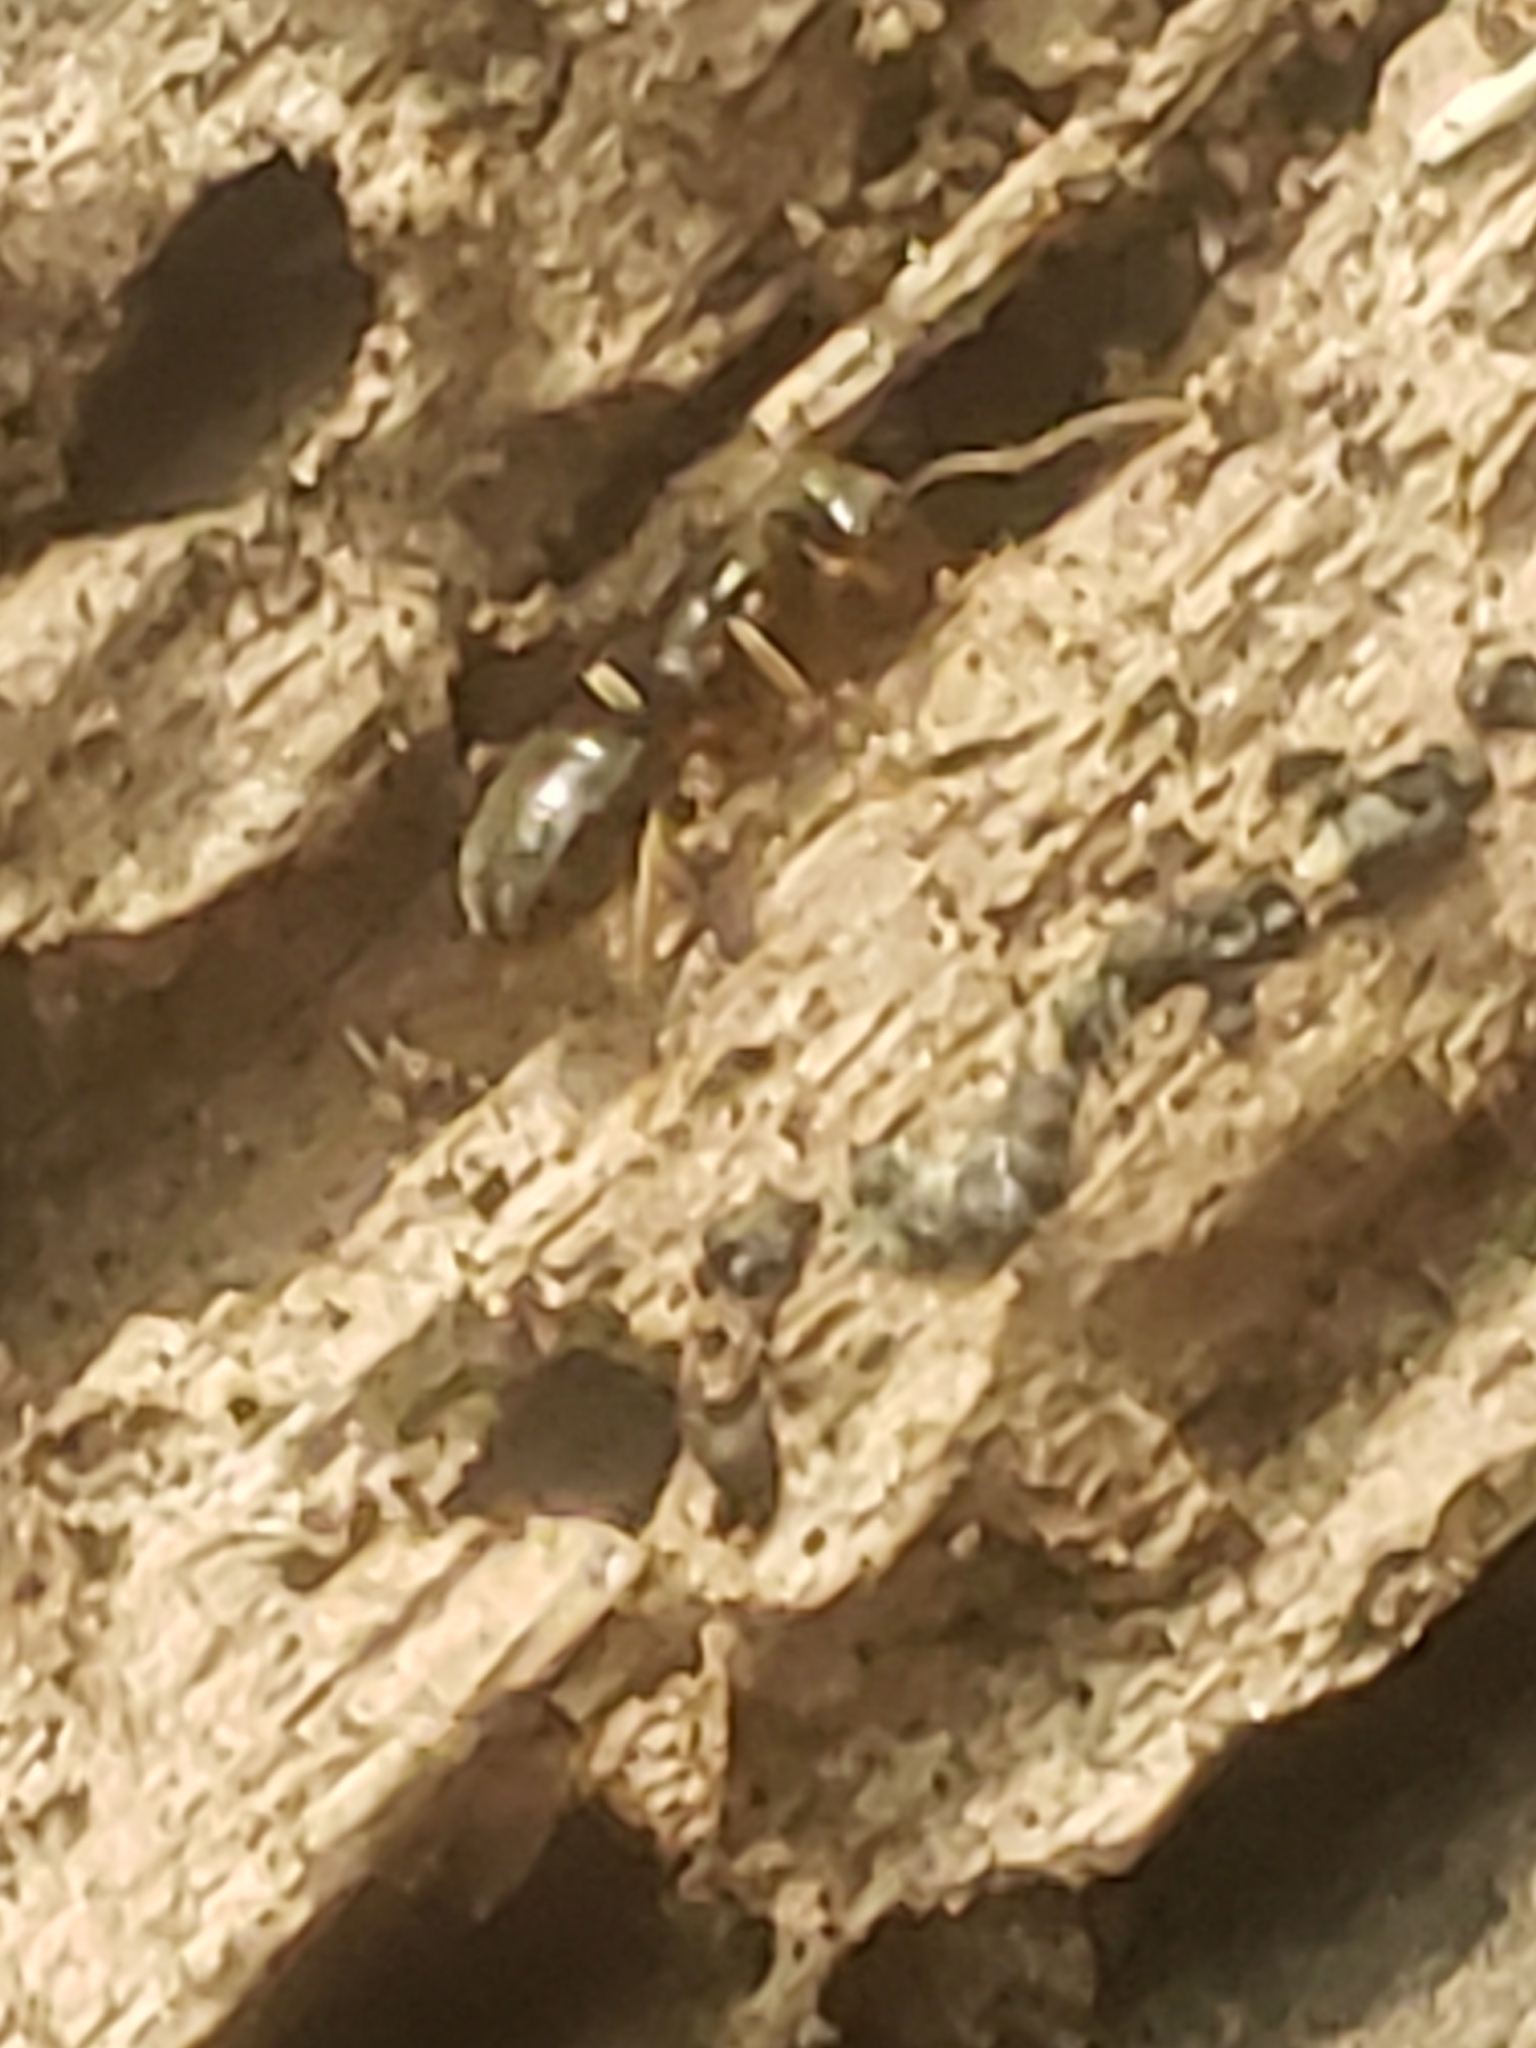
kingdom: Animalia
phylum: Arthropoda
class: Insecta
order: Hymenoptera
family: Formicidae
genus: Lasius
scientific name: Lasius aphidicola
